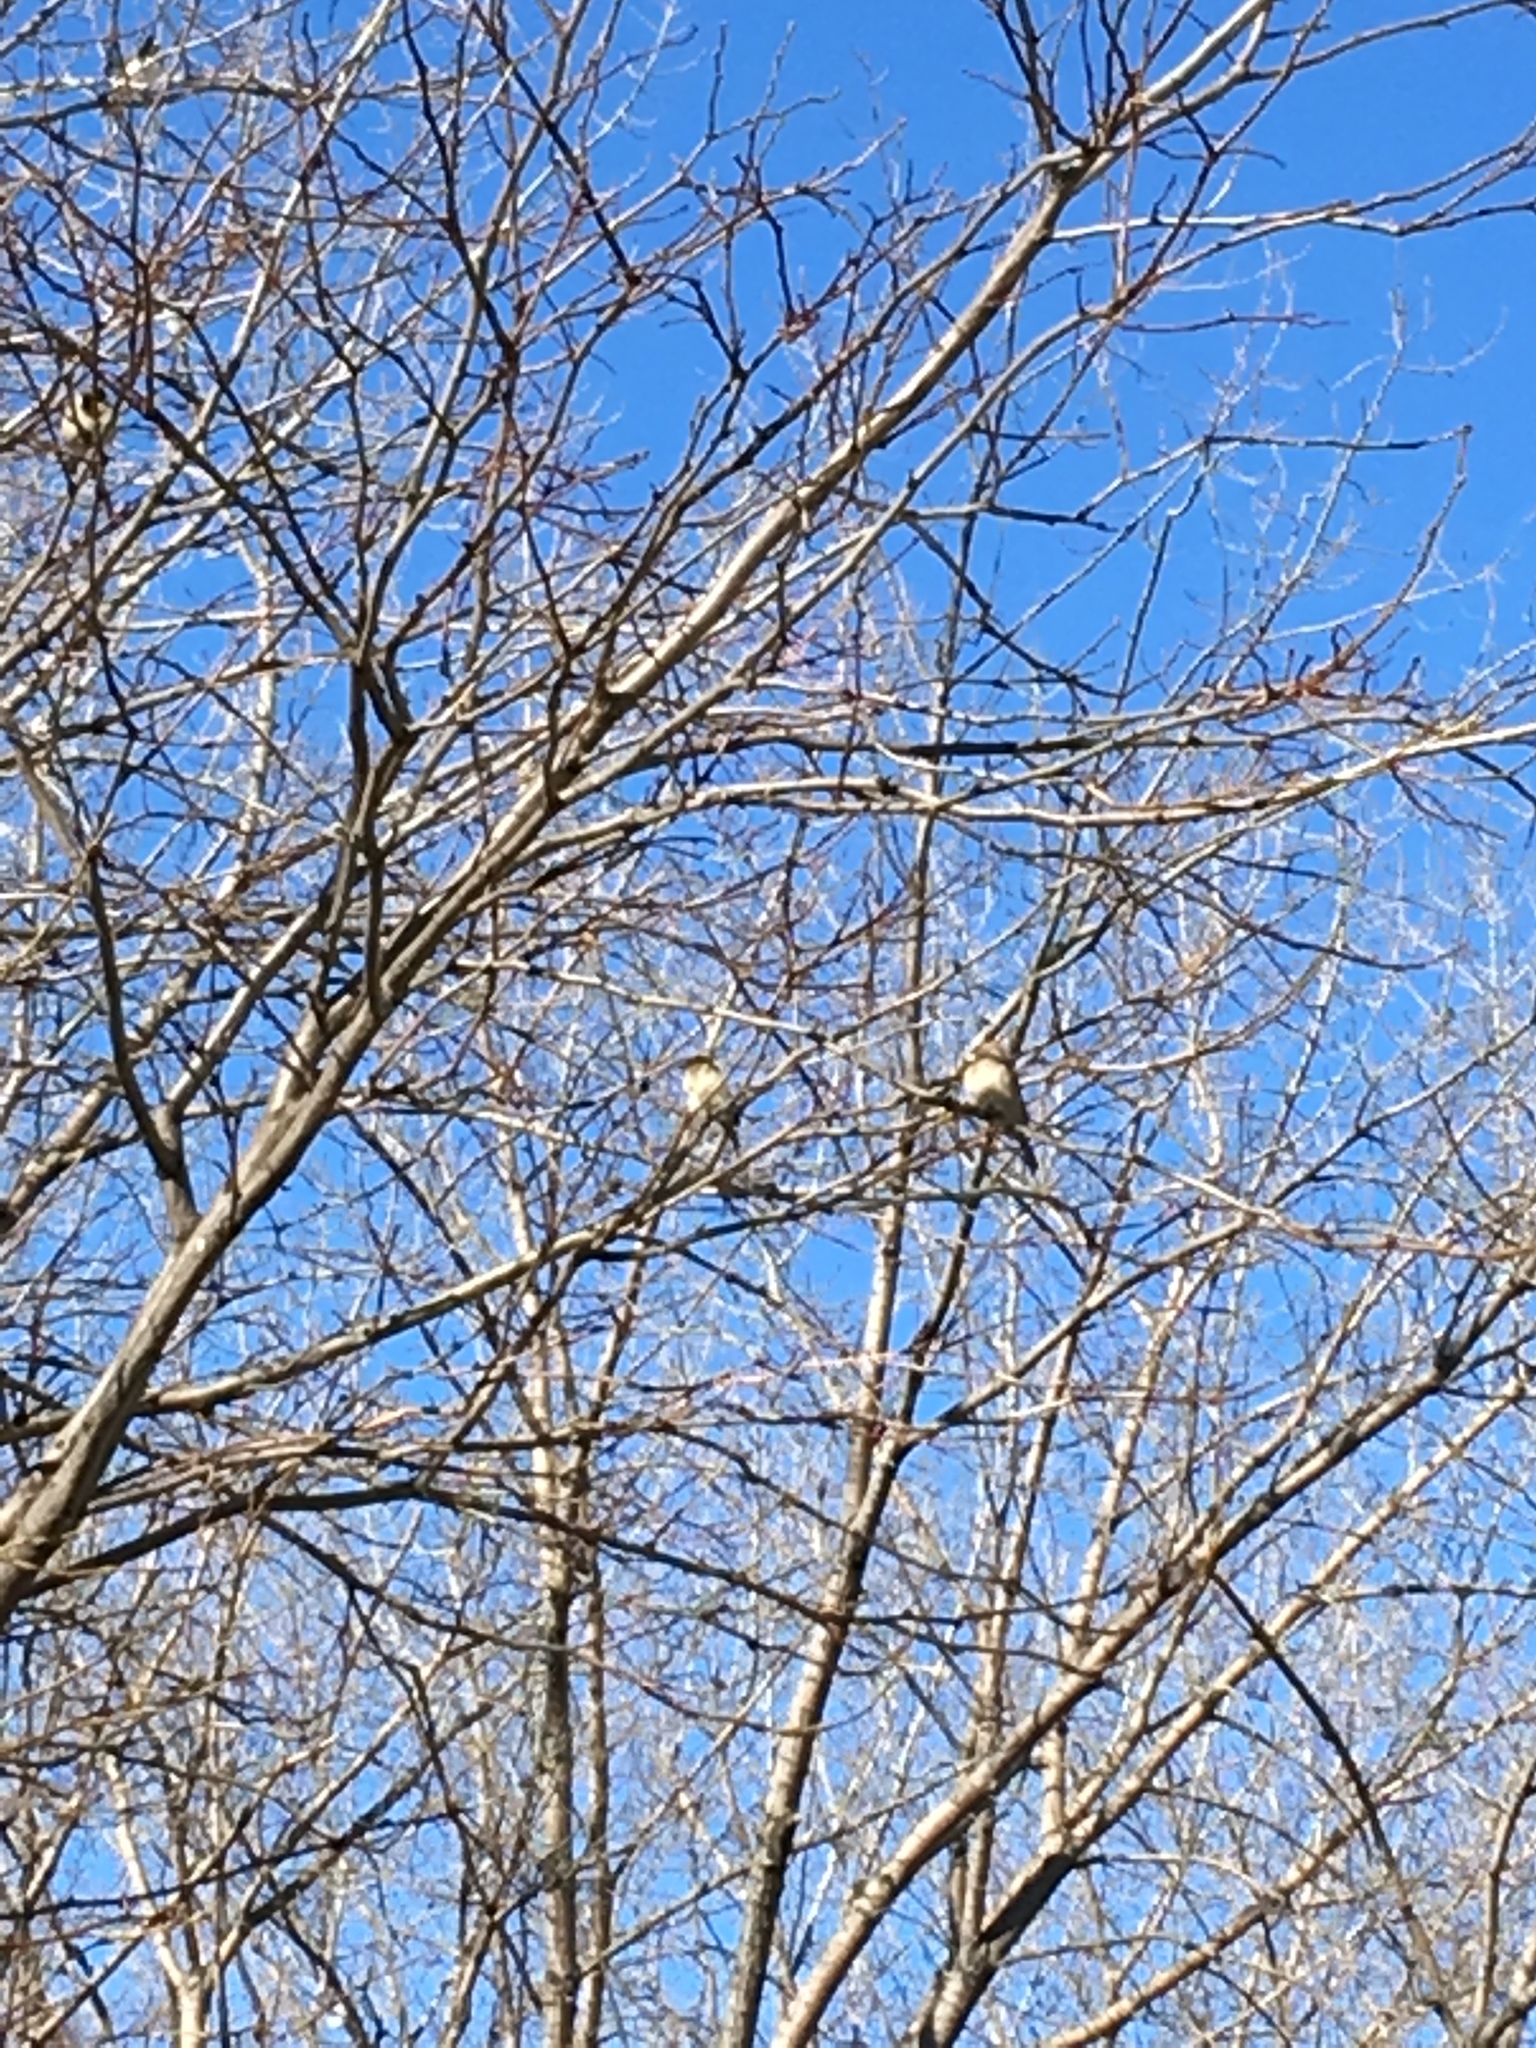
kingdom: Animalia
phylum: Chordata
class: Aves
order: Passeriformes
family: Passeridae
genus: Passer
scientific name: Passer domesticus
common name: House sparrow
